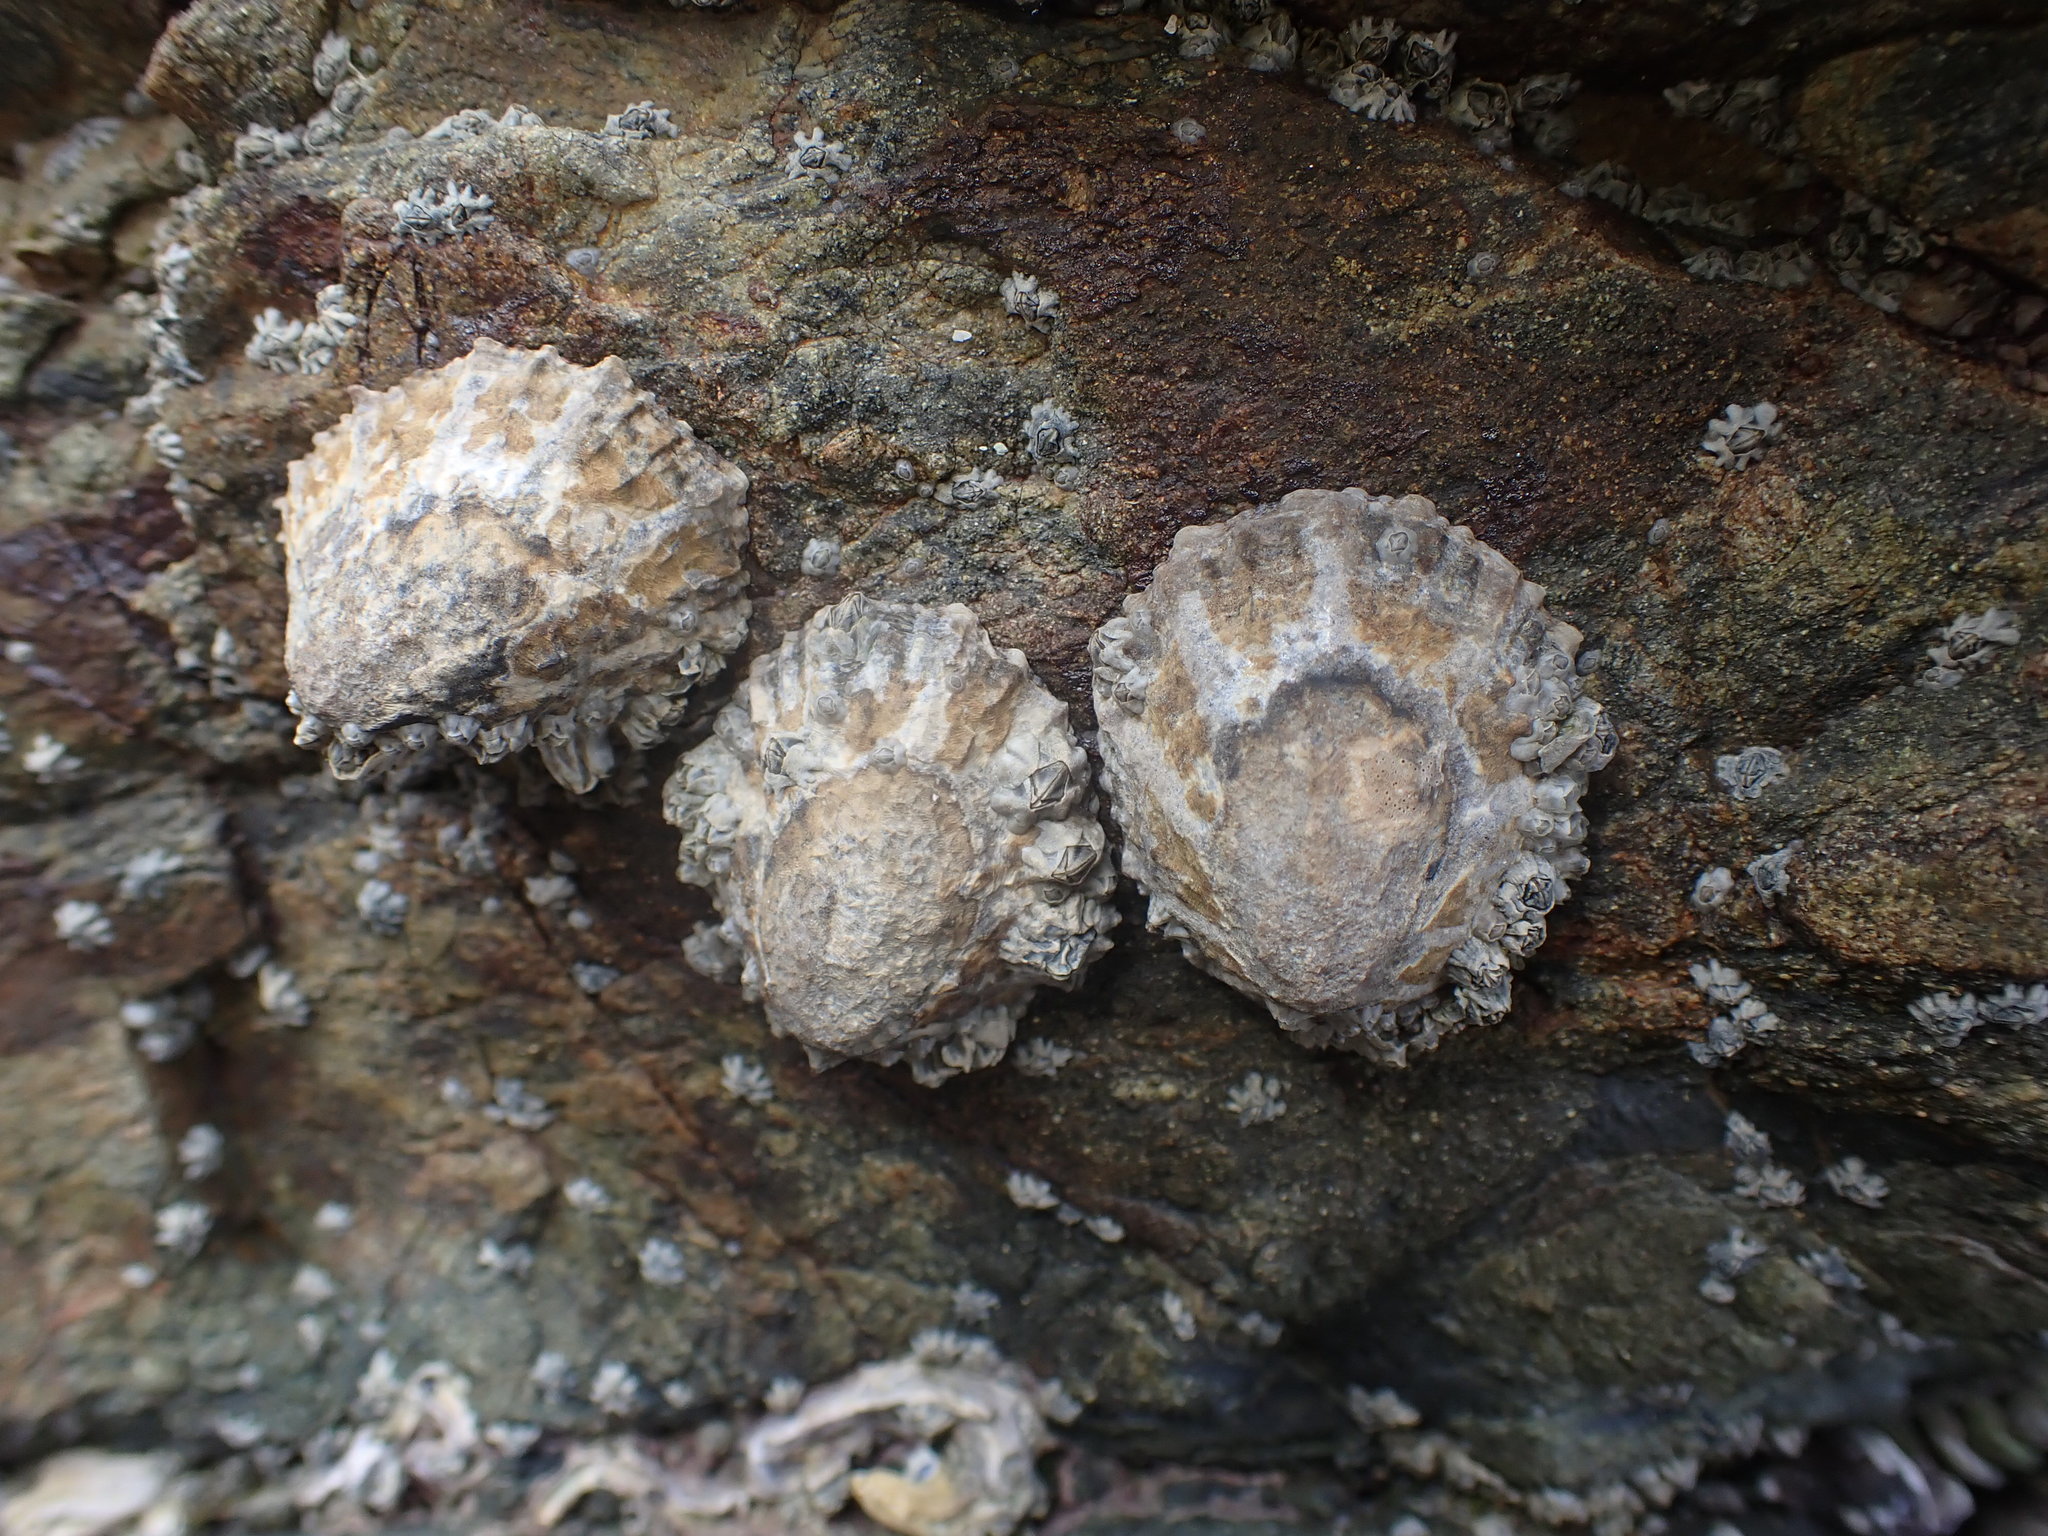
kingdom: Animalia
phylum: Mollusca
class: Gastropoda
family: Nacellidae
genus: Cellana
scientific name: Cellana ornata
